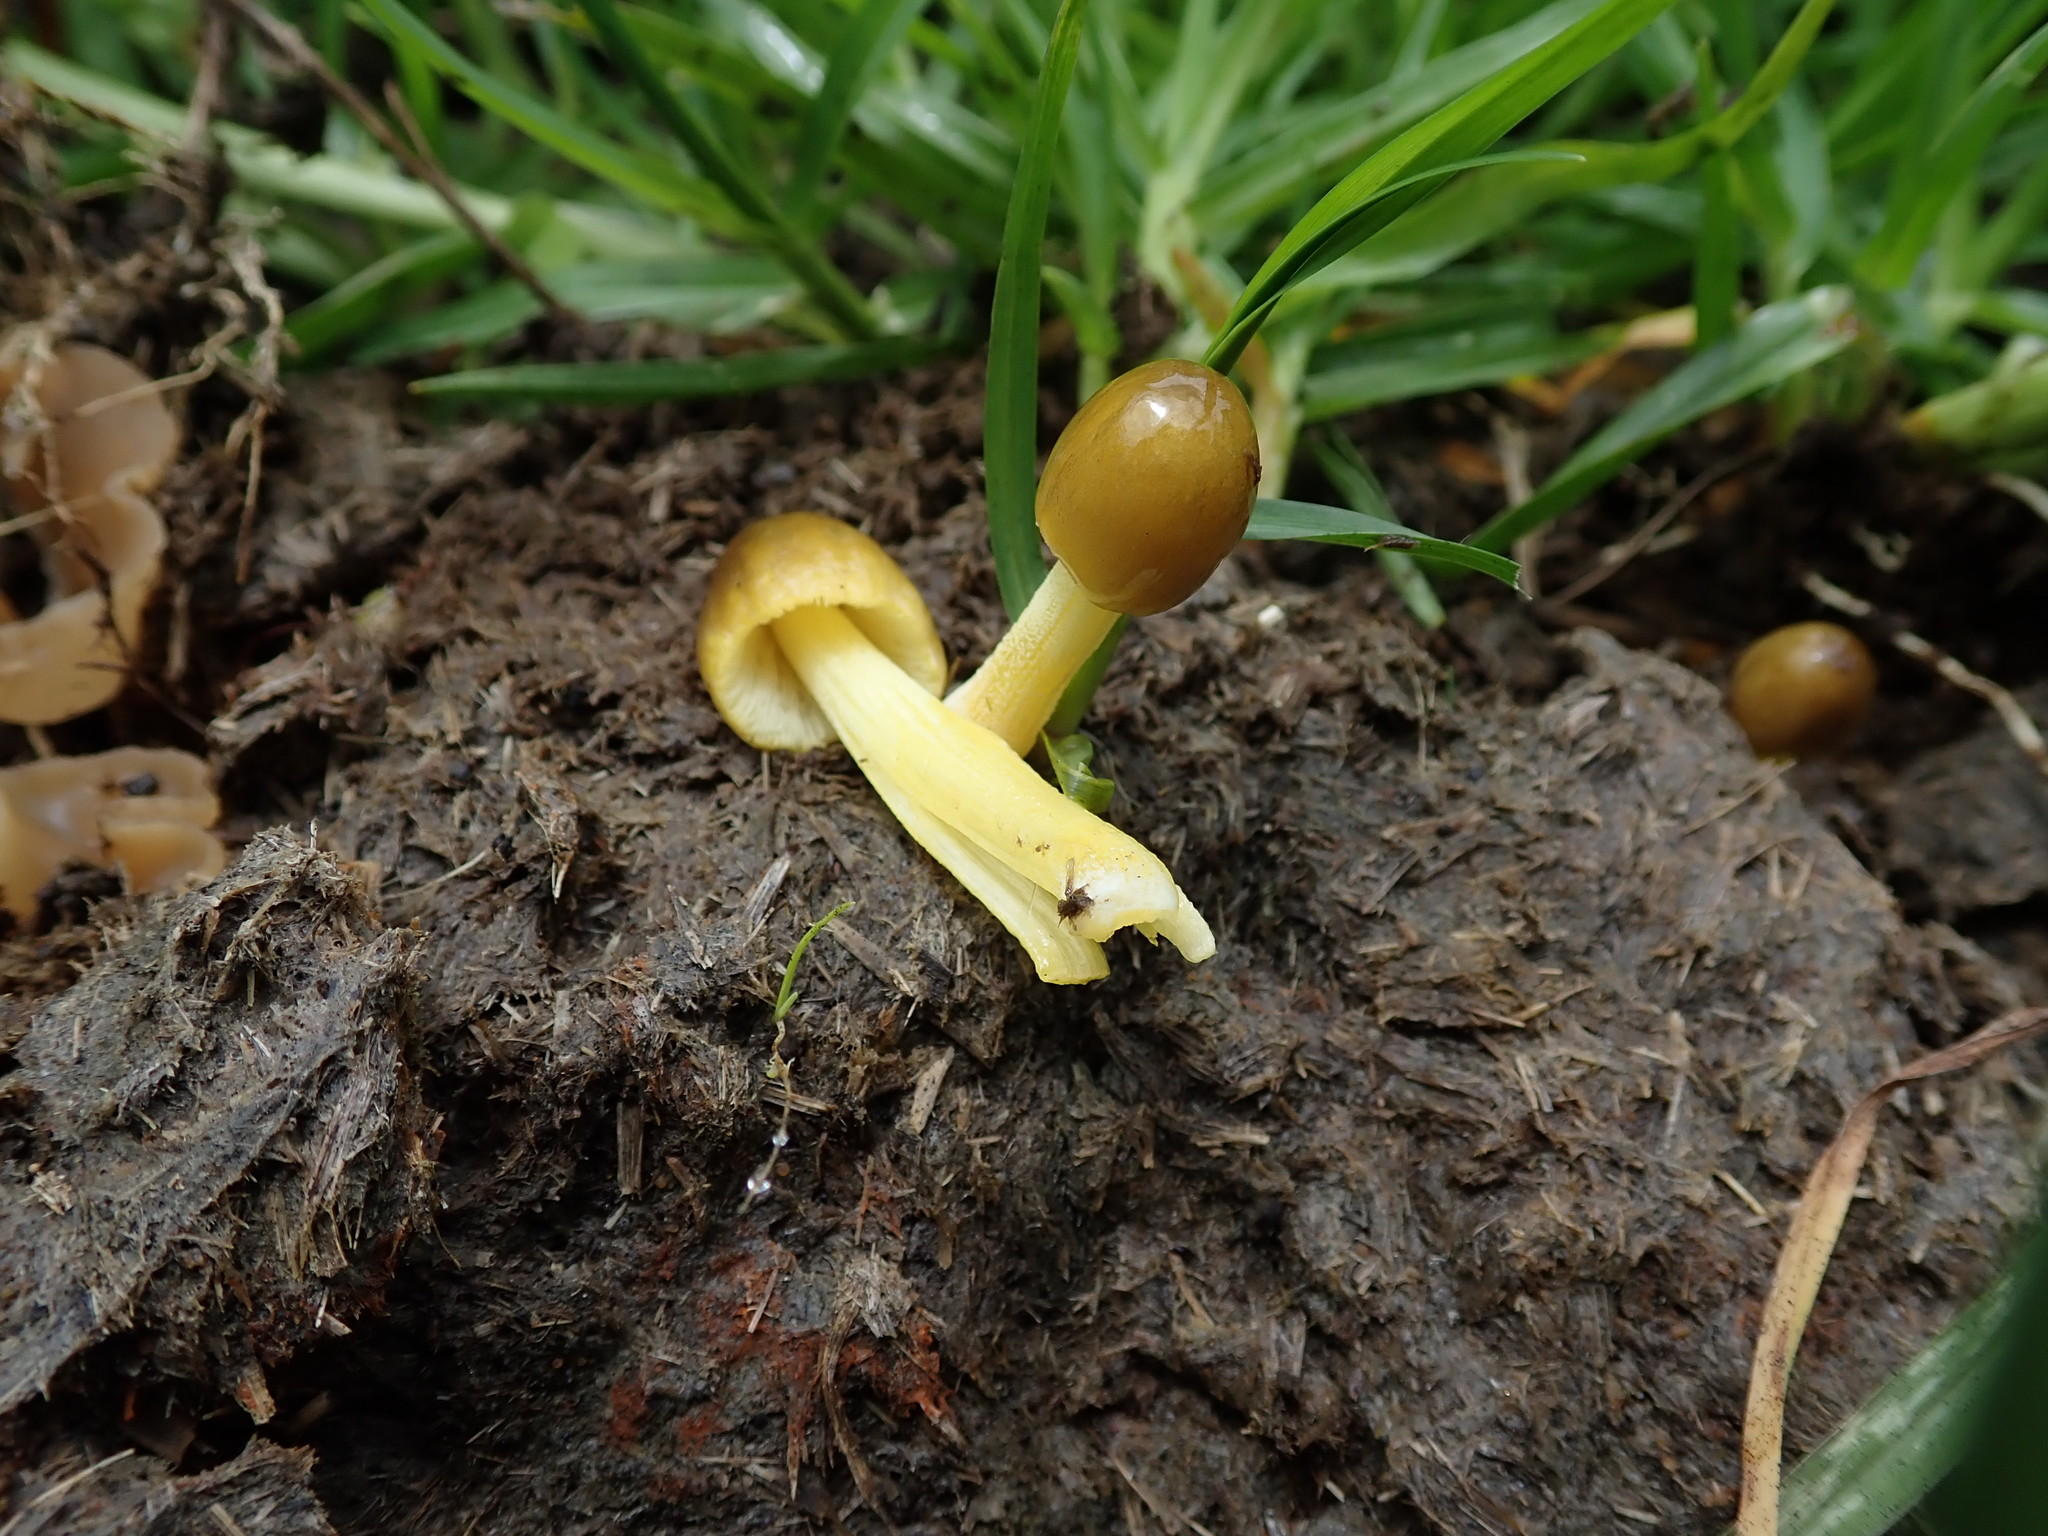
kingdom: Fungi
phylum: Basidiomycota
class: Agaricomycetes
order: Agaricales
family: Bolbitiaceae
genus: Bolbitius
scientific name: Bolbitius titubans
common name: Yellow fieldcap
